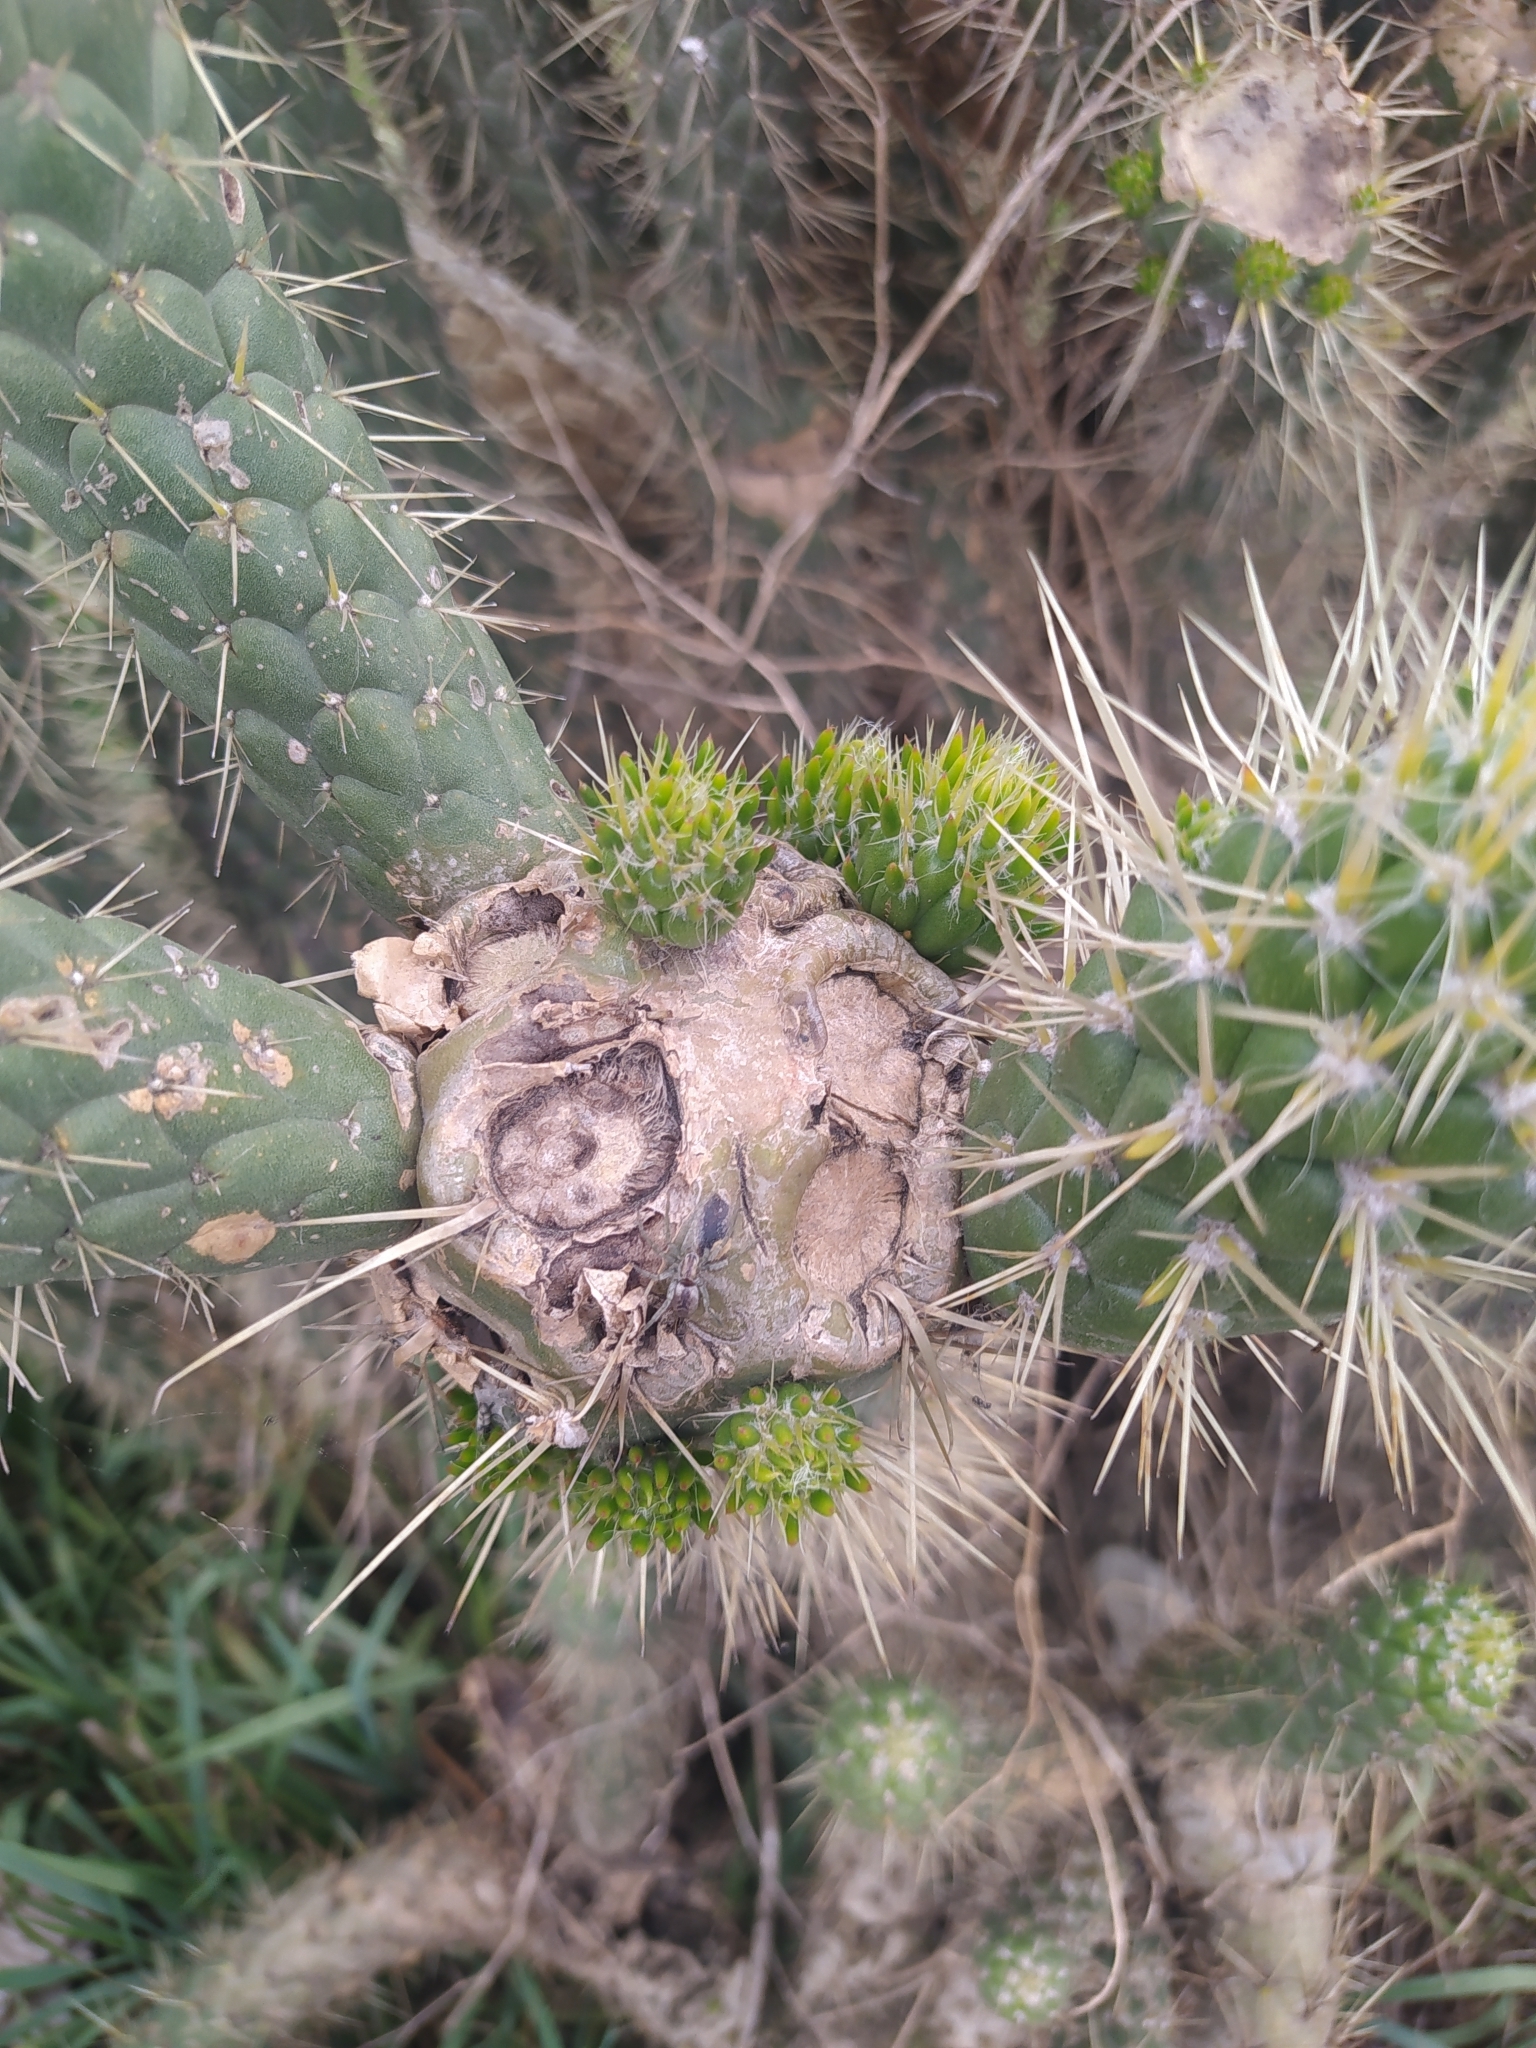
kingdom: Plantae
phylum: Tracheophyta
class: Magnoliopsida
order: Caryophyllales
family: Cactaceae
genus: Austrocylindropuntia
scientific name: Austrocylindropuntia cylindrica
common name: Cane cactus
